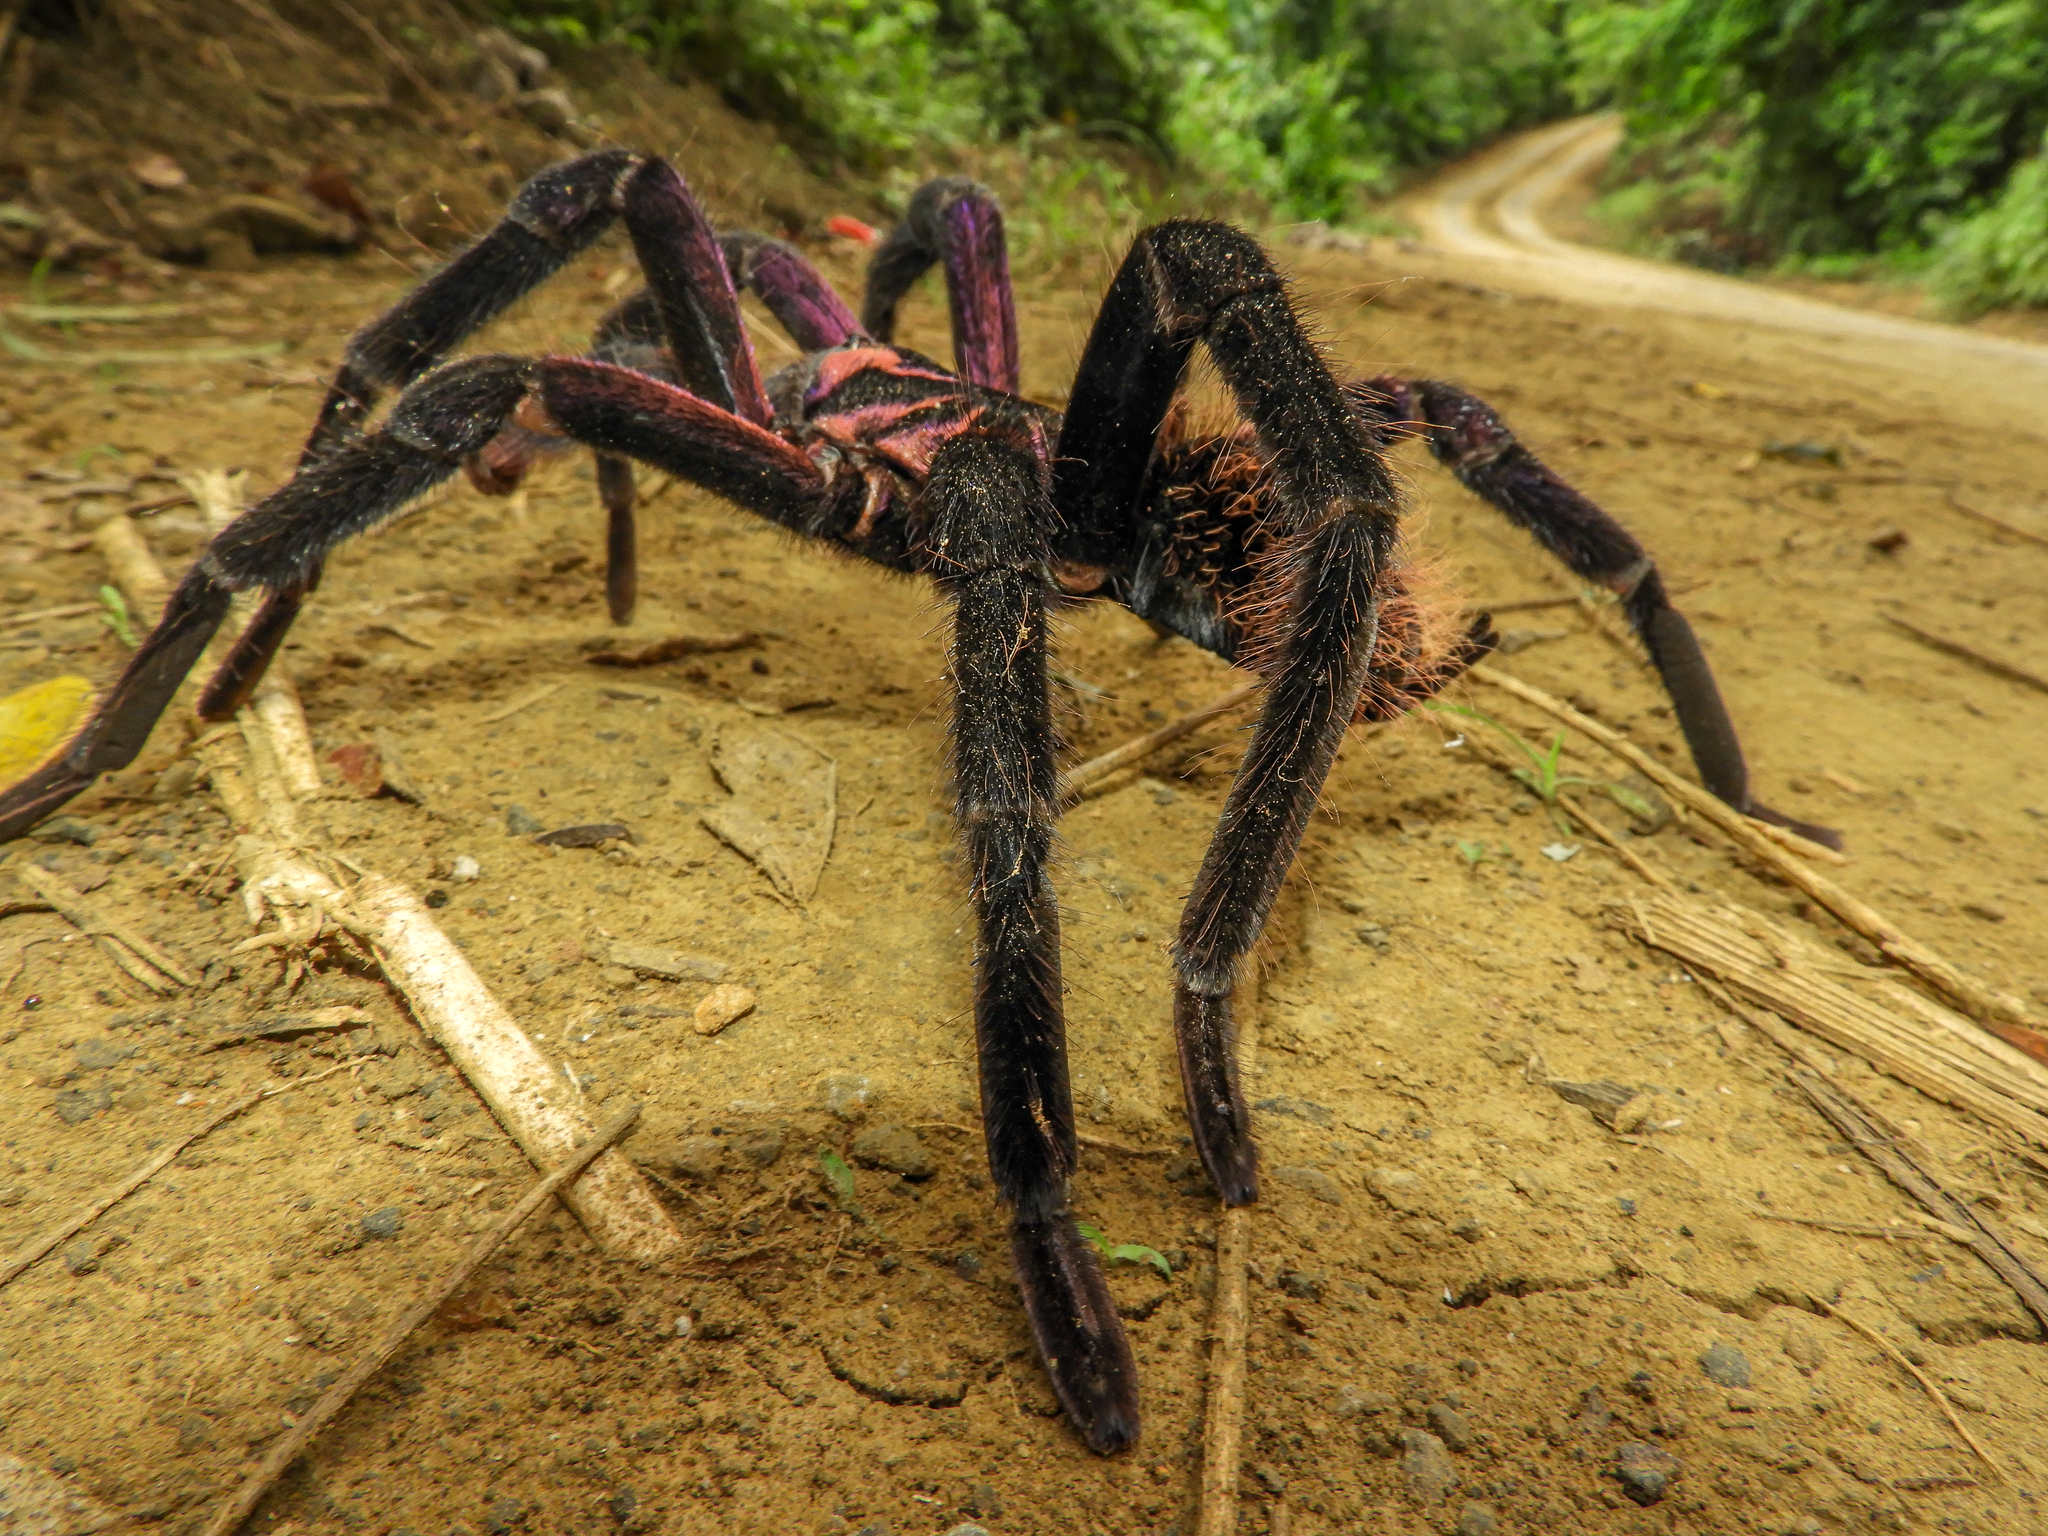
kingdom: Animalia
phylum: Arthropoda
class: Arachnida
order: Araneae
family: Theraphosidae
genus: Xenesthis
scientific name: Xenesthis immanis
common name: Tarantula spiders
